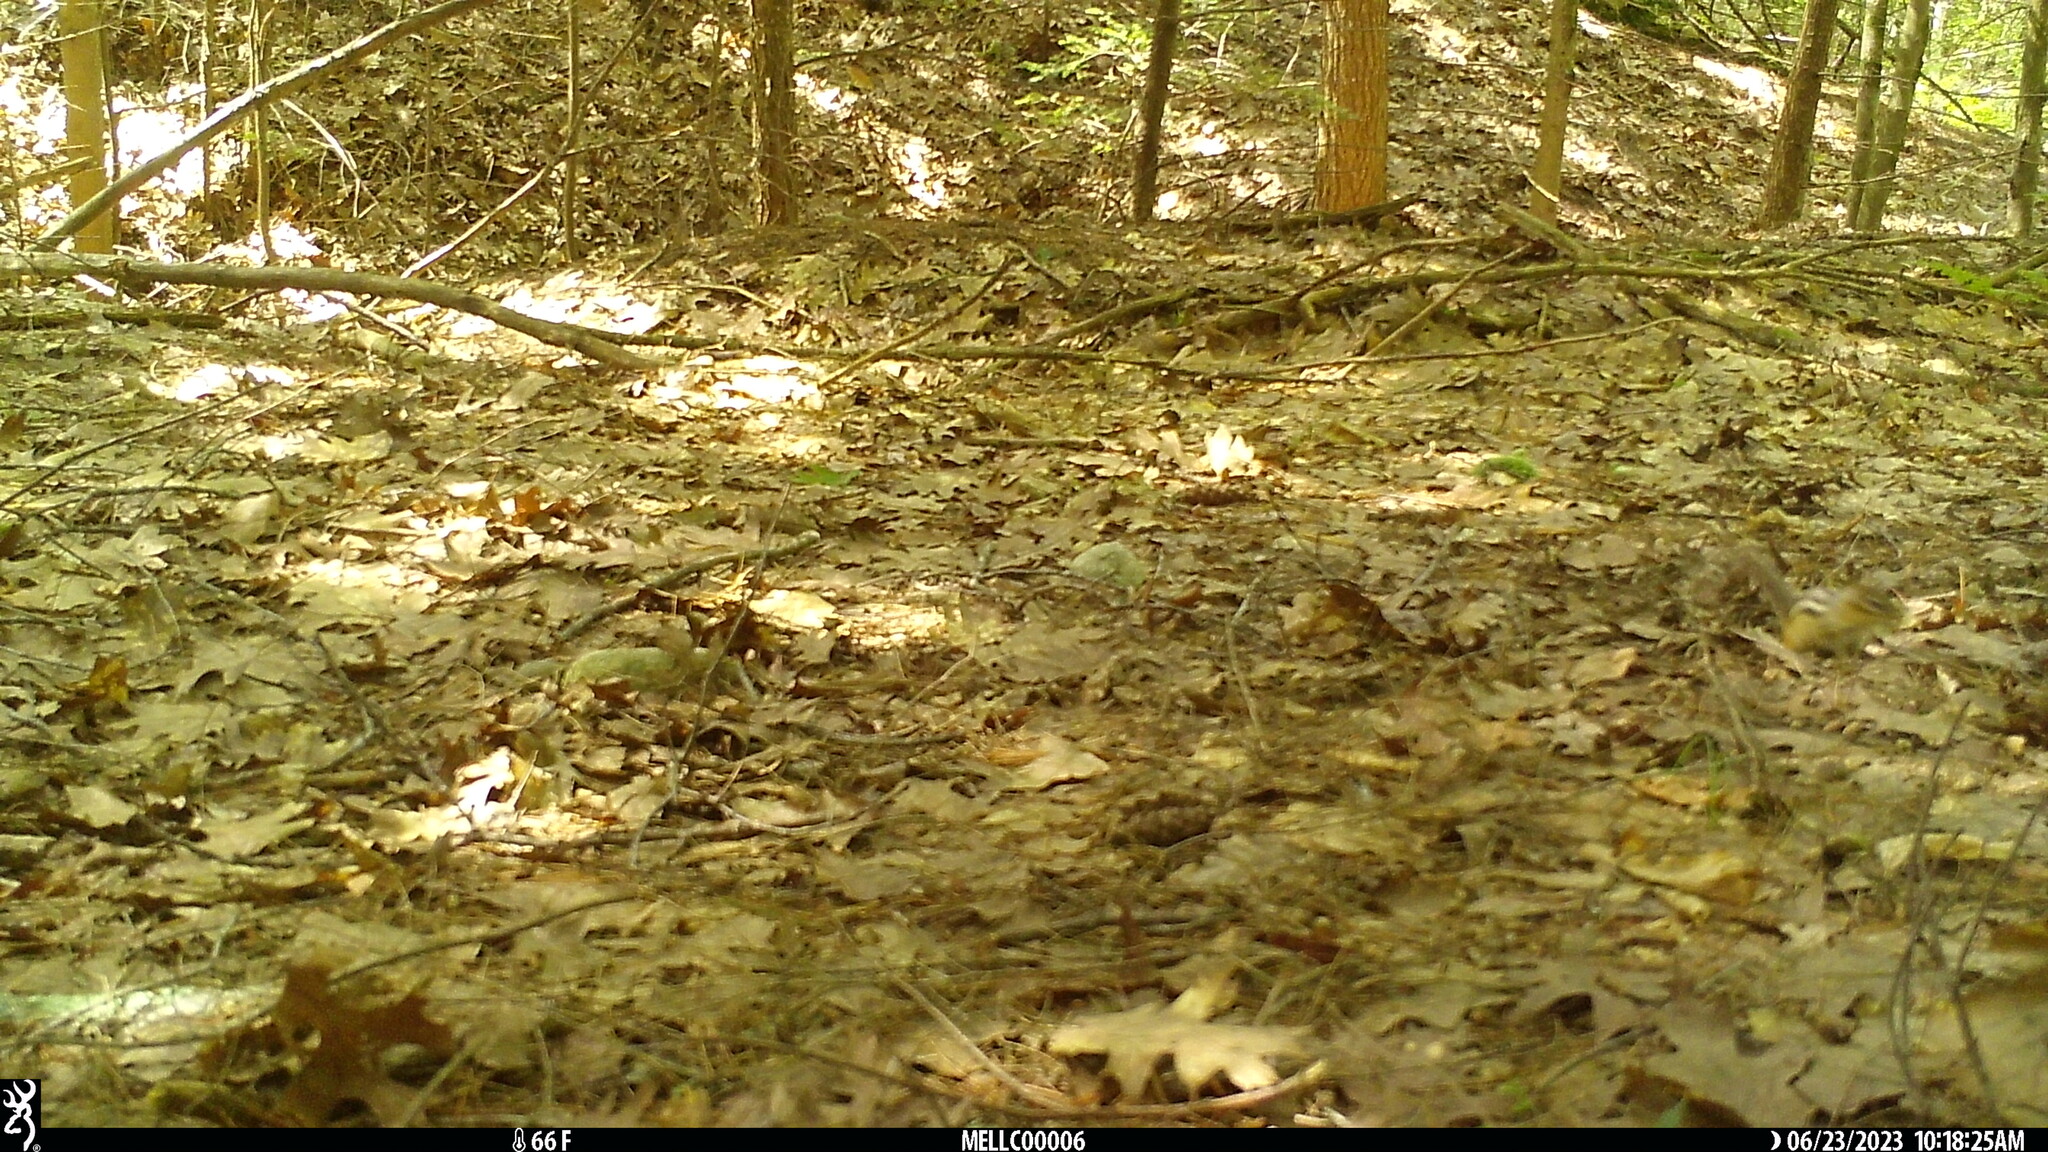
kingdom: Animalia
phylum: Chordata
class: Mammalia
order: Rodentia
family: Sciuridae
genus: Tamias
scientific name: Tamias striatus
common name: Eastern chipmunk
